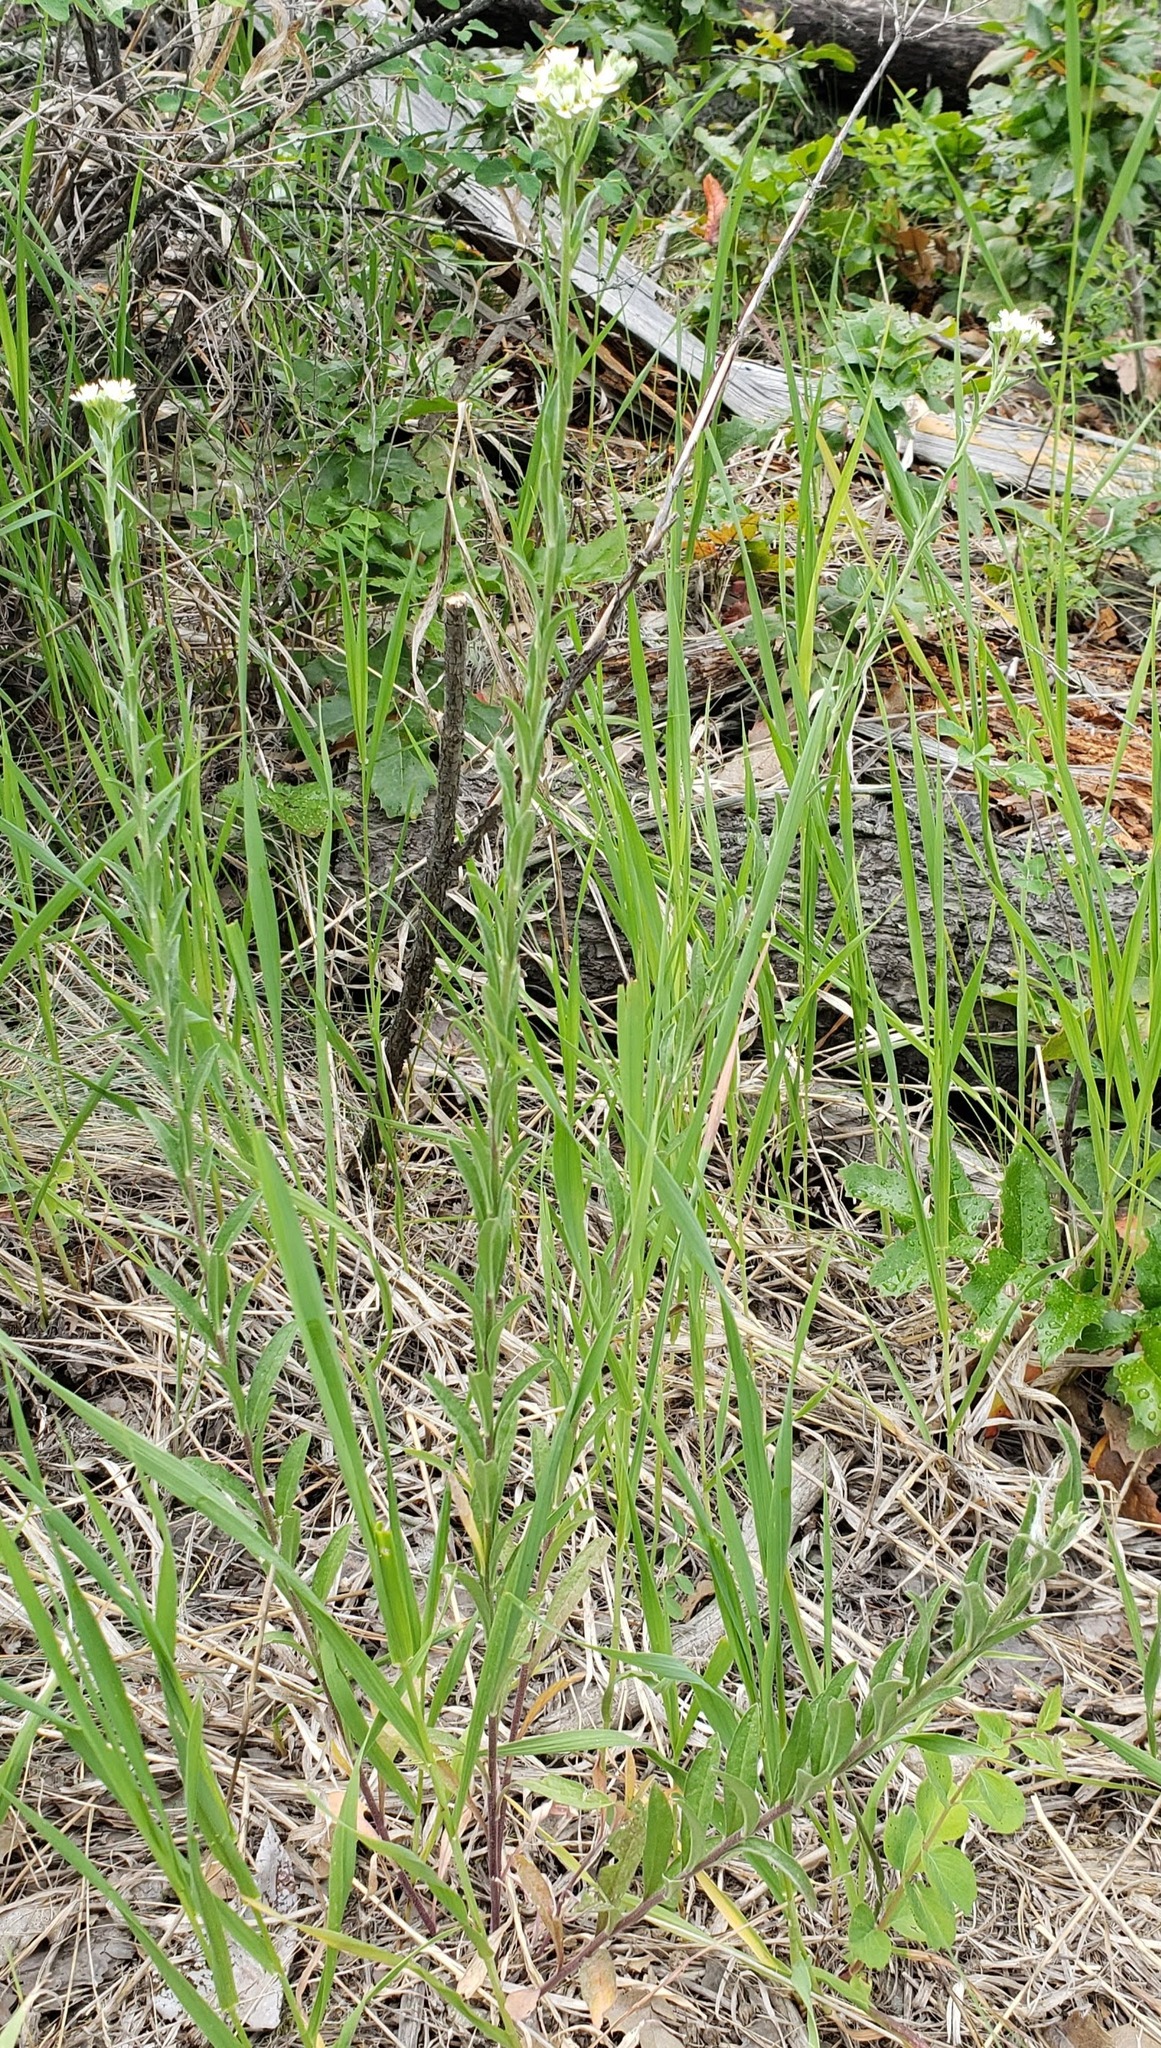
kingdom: Plantae
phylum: Tracheophyta
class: Magnoliopsida
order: Brassicales
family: Brassicaceae
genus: Berteroa
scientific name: Berteroa incana
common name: Hoary alison
